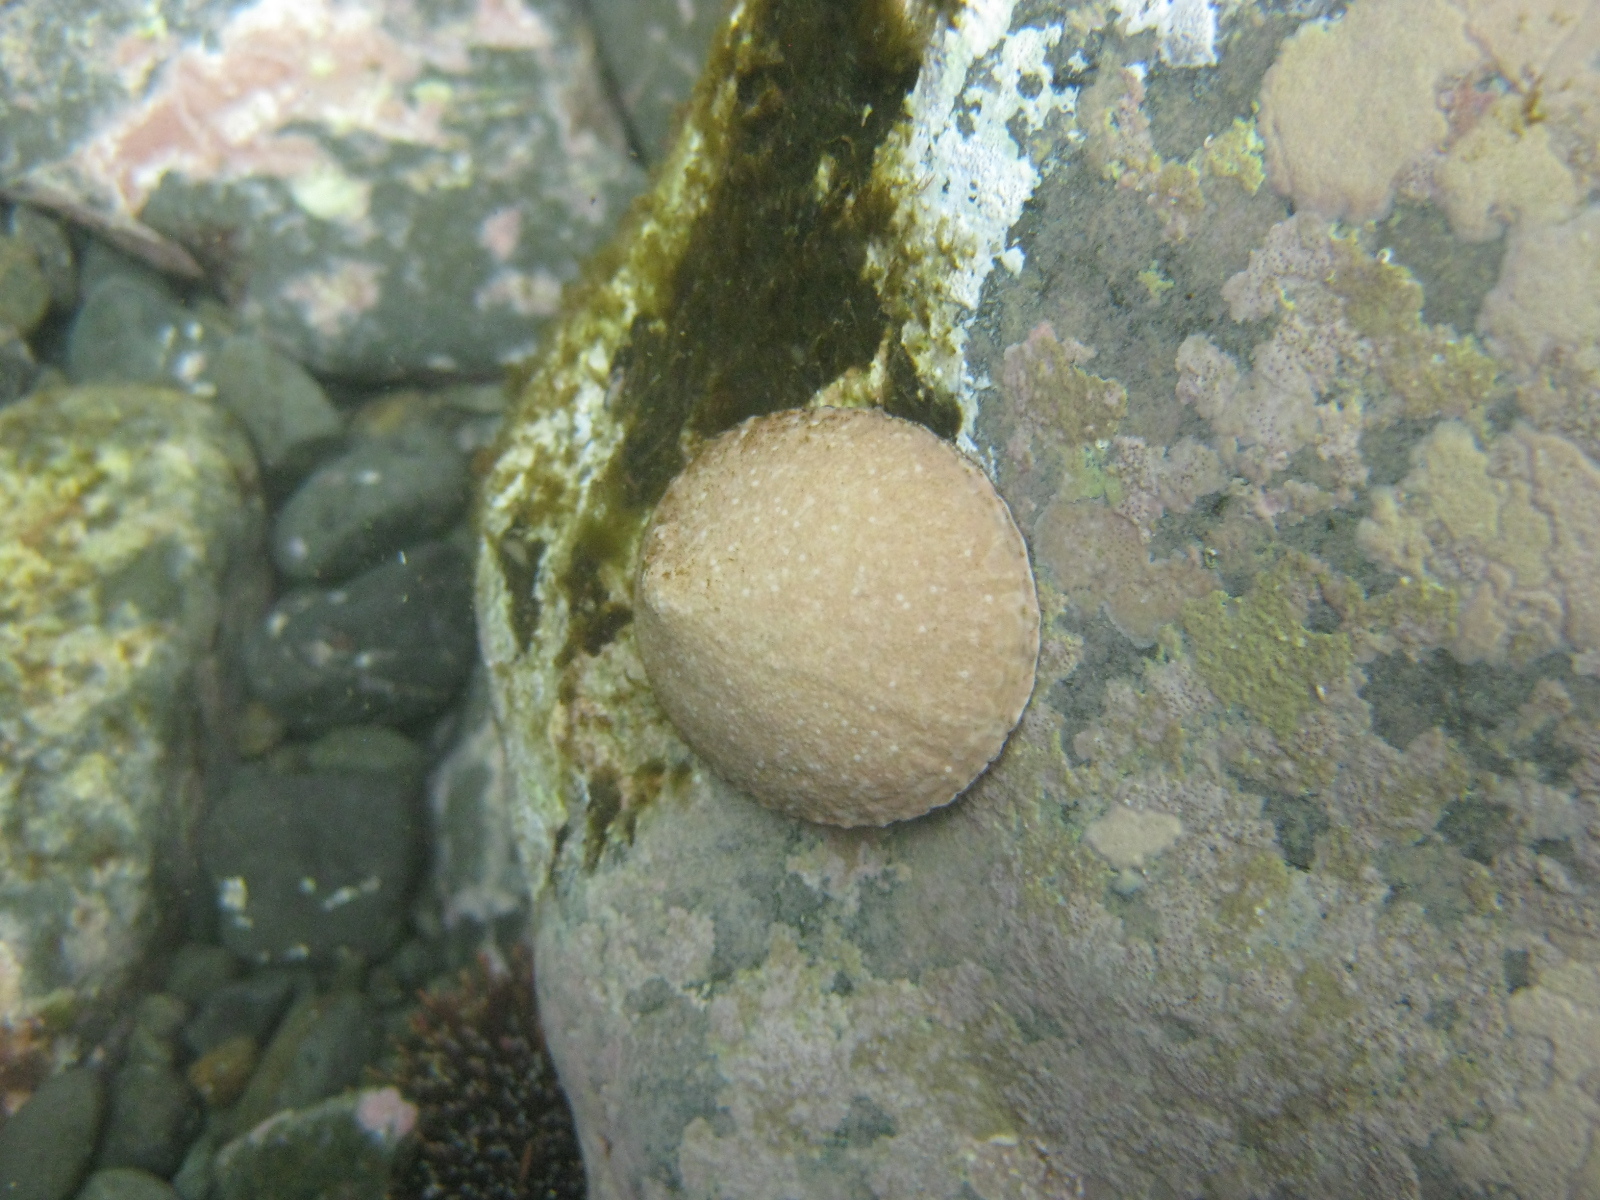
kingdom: Animalia
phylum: Mollusca
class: Gastropoda
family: Nacellidae
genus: Cellana
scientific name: Cellana stellifera
